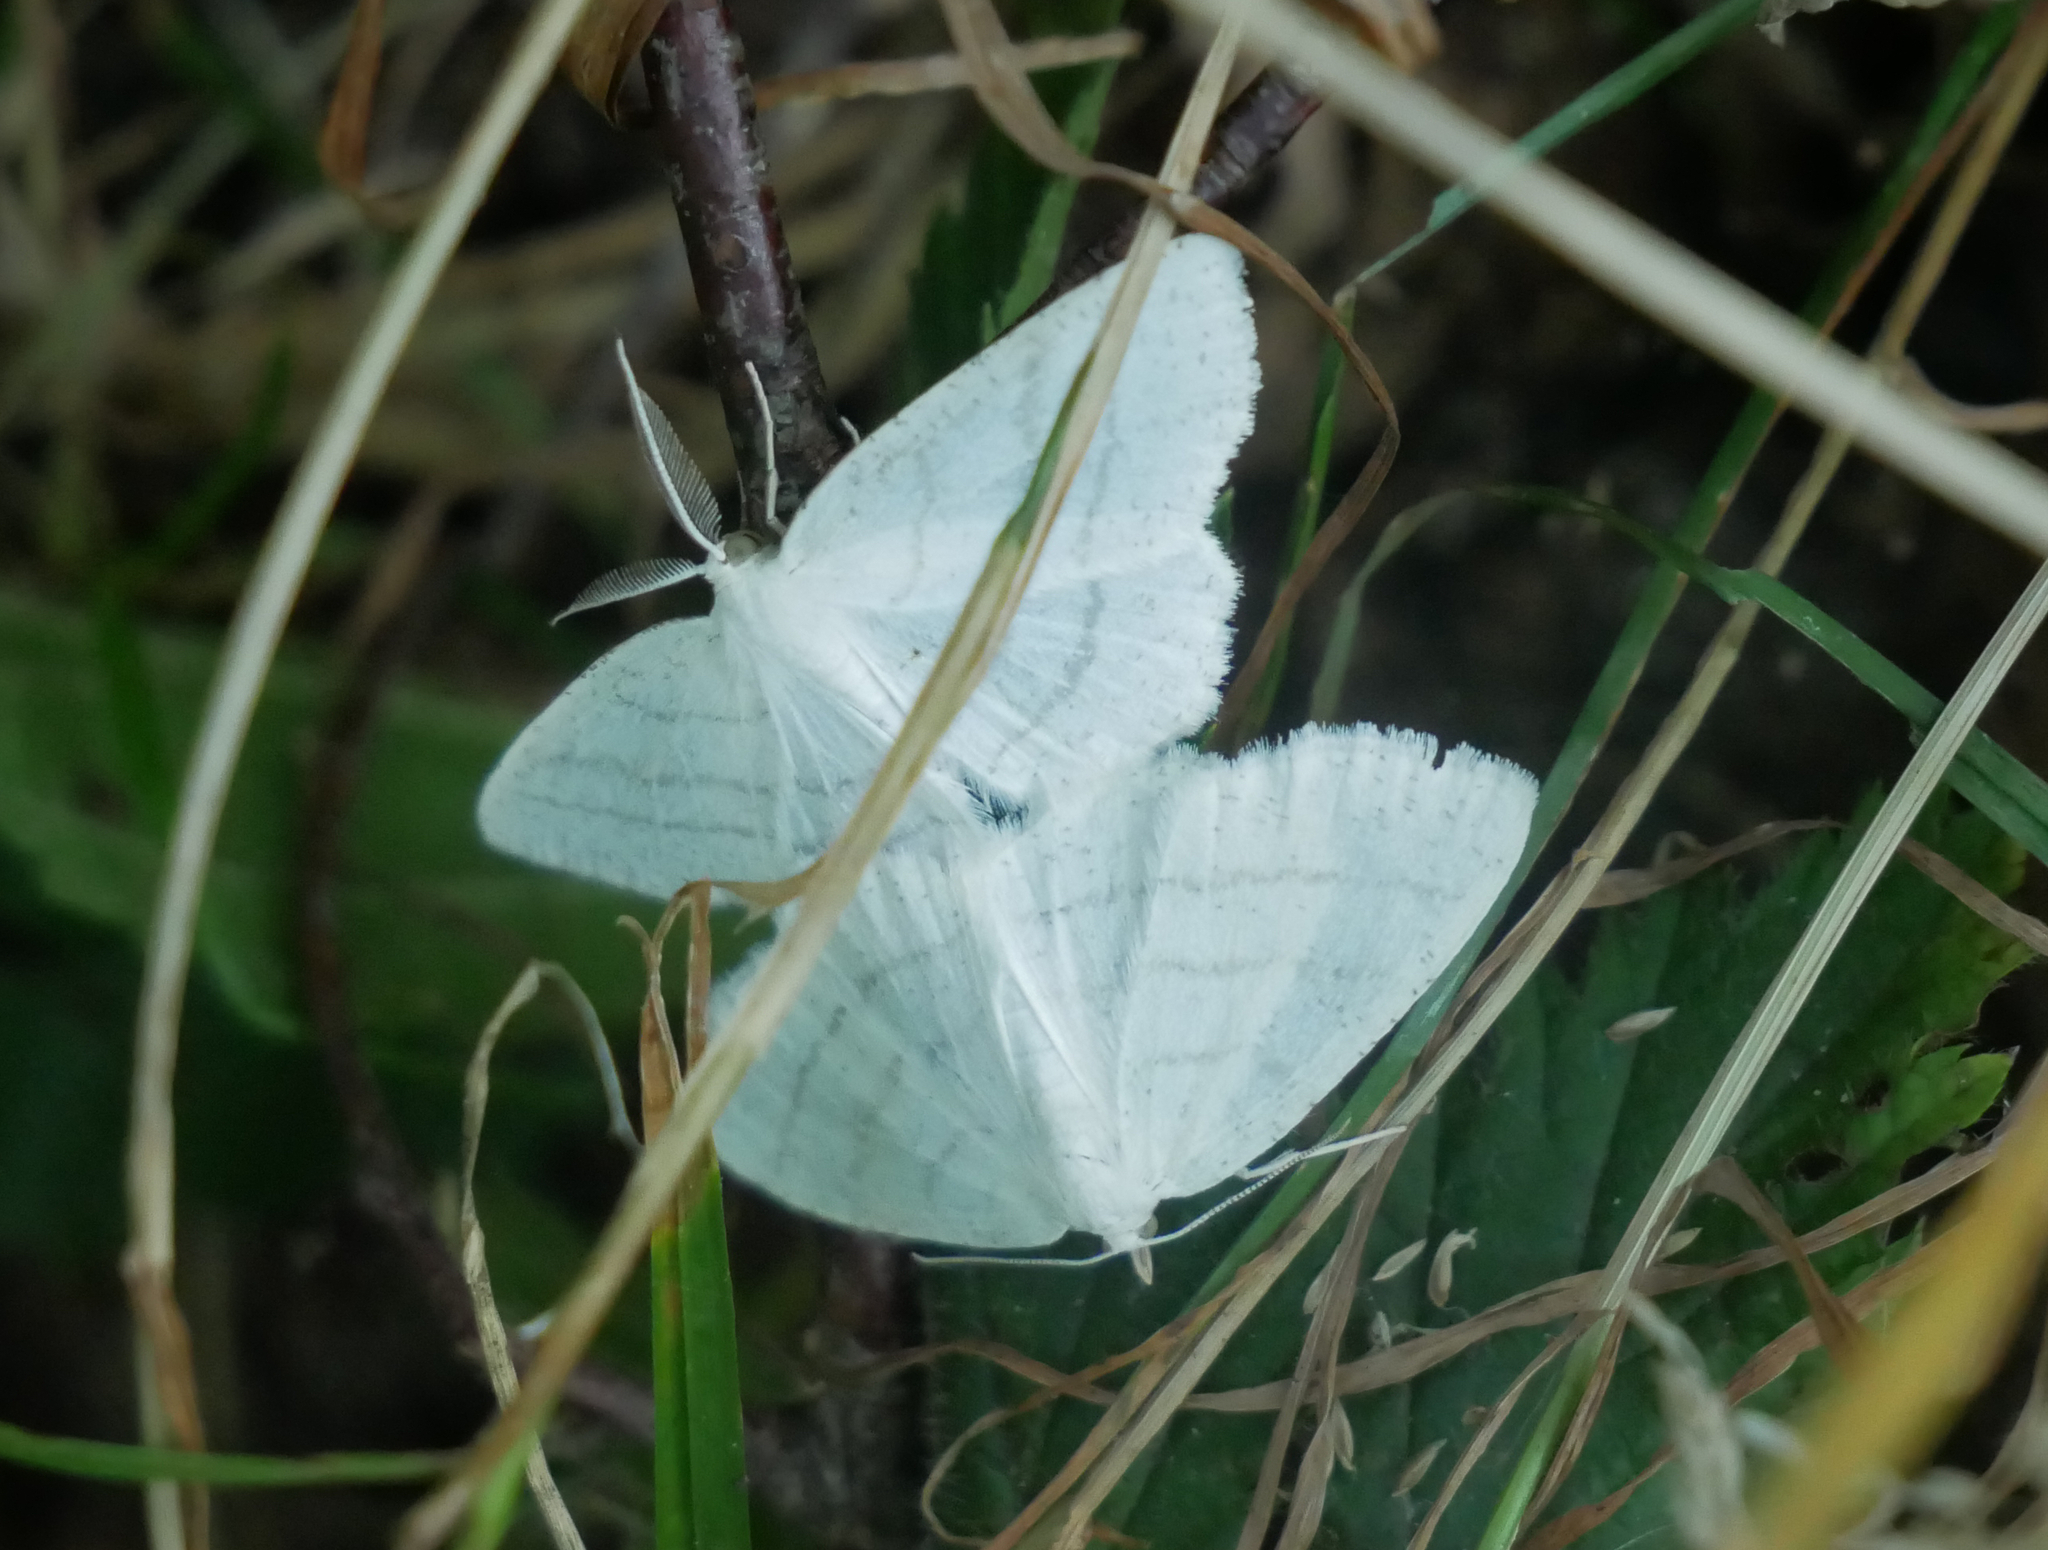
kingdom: Animalia
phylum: Arthropoda
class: Insecta
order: Lepidoptera
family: Geometridae
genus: Cabera
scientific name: Cabera pusaria
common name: Common white wave
